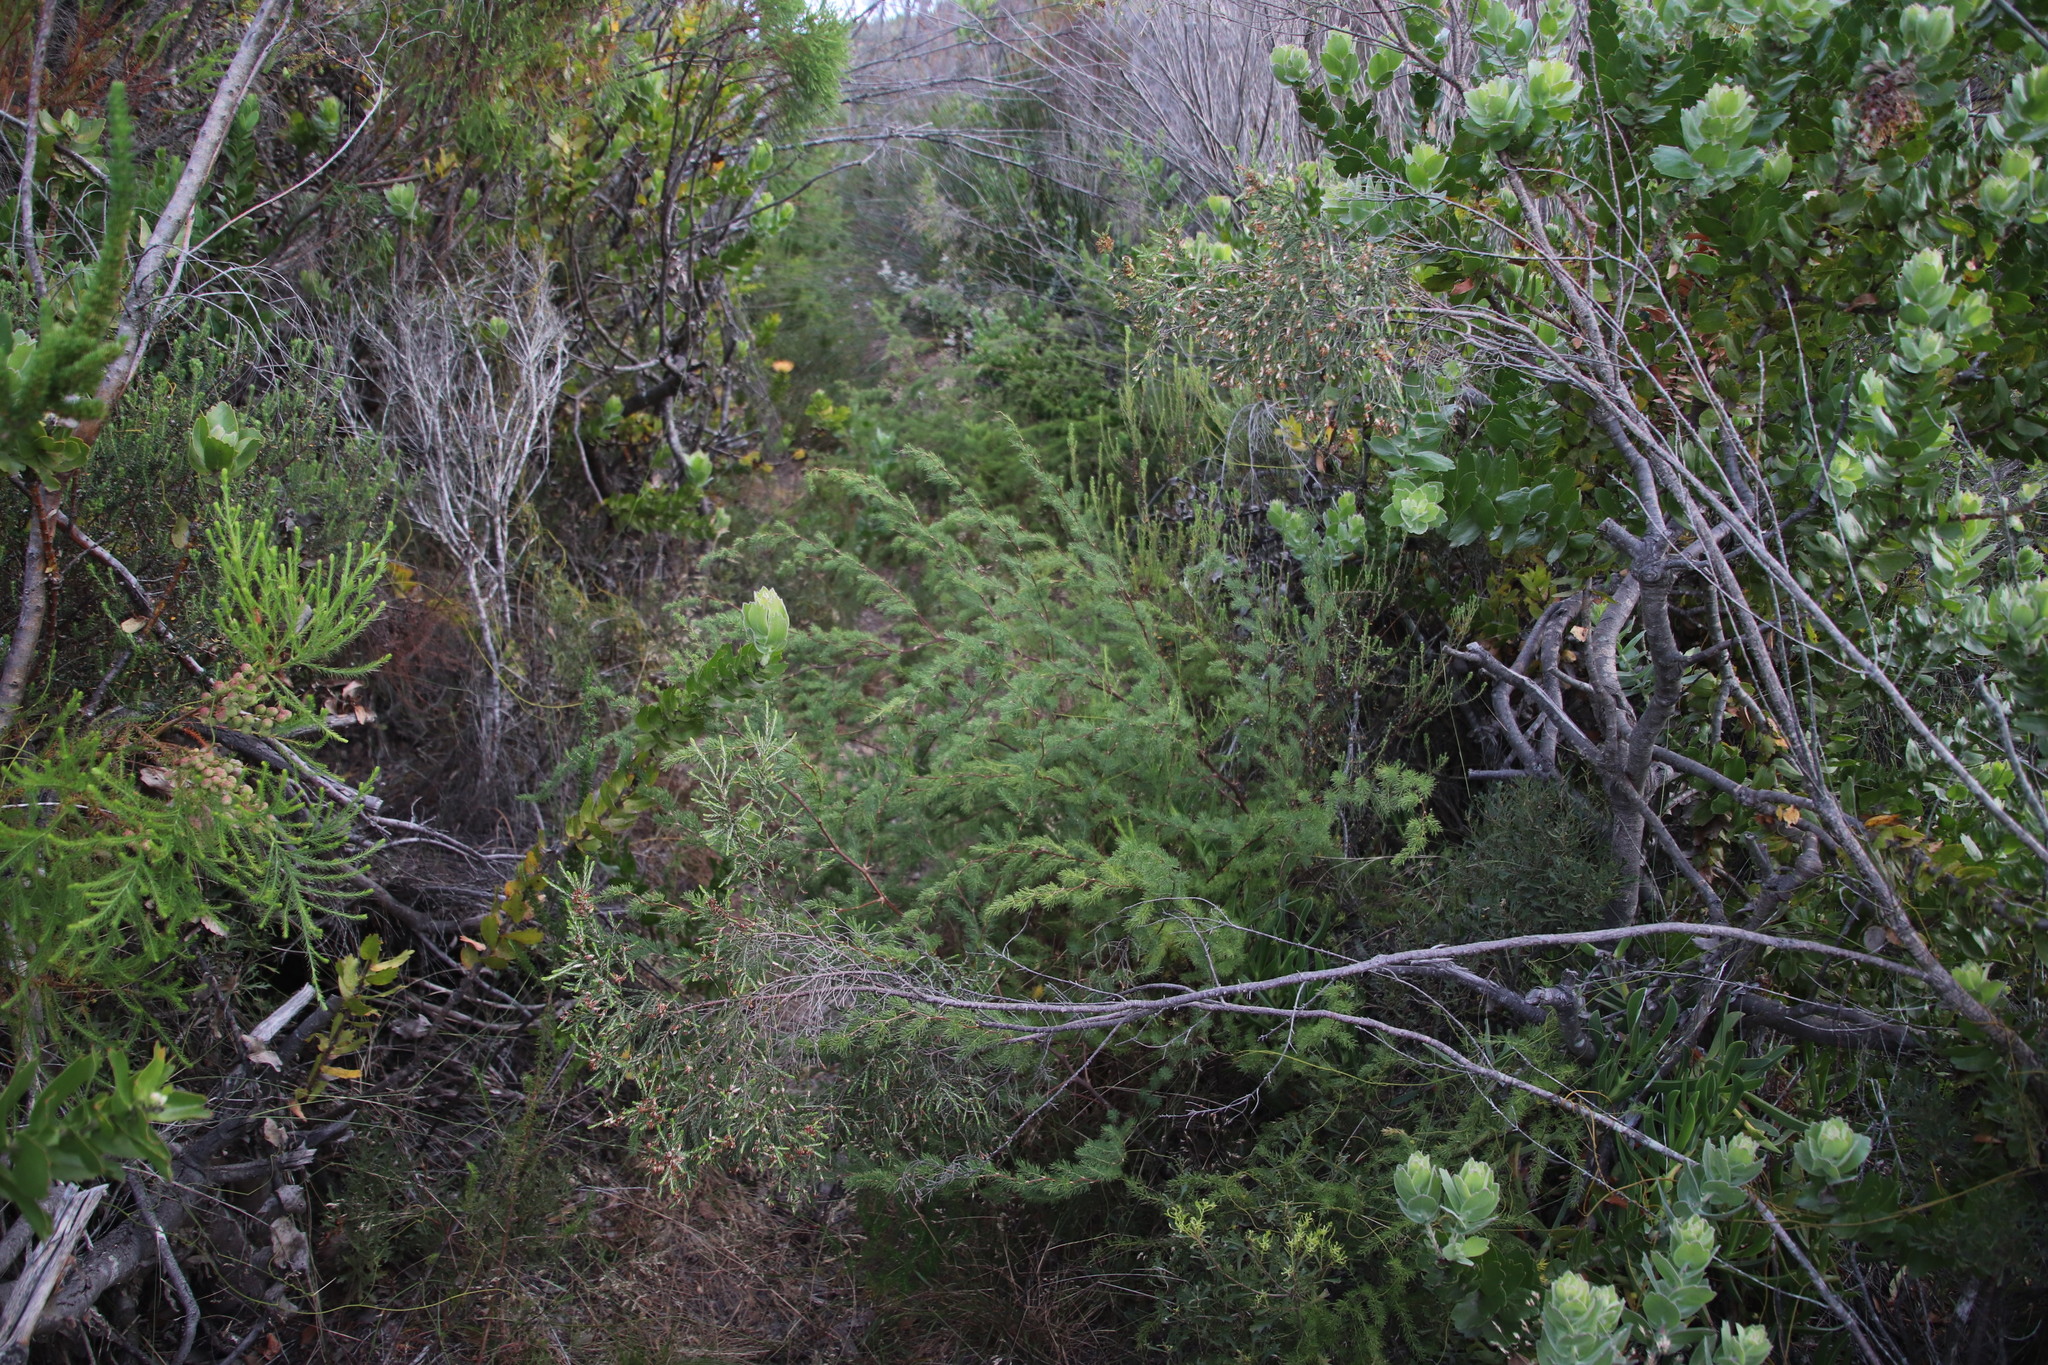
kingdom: Plantae
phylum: Tracheophyta
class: Liliopsida
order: Asparagales
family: Asparagaceae
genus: Asparagus
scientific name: Asparagus rubicundus
